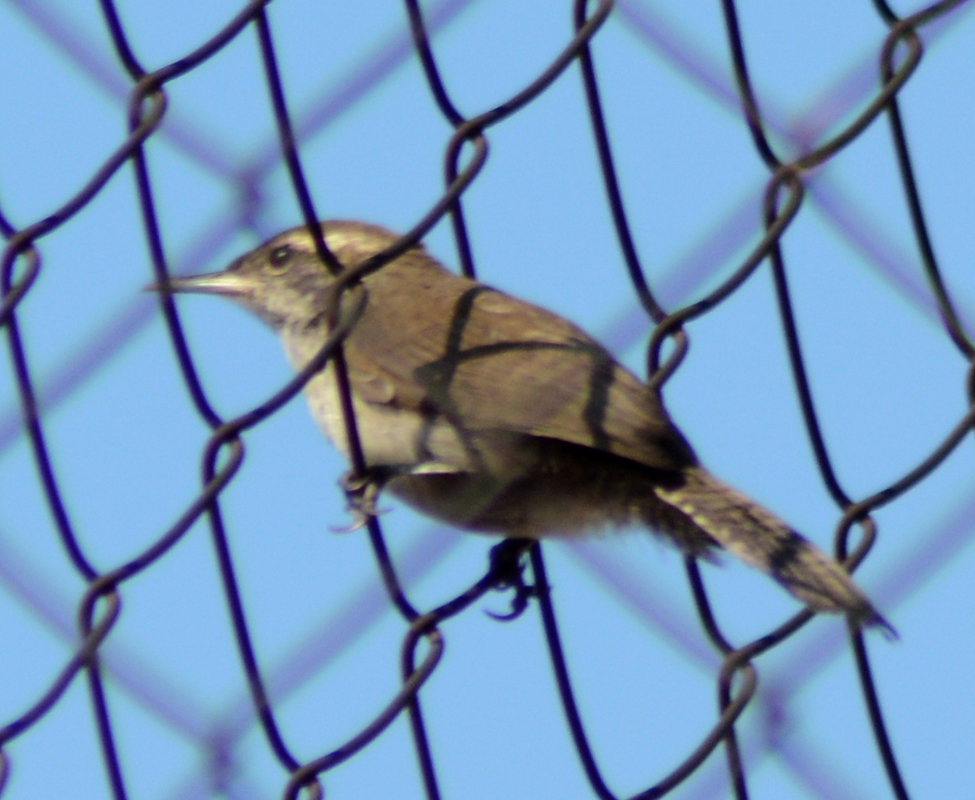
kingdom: Animalia
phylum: Chordata
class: Aves
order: Passeriformes
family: Troglodytidae
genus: Thryomanes
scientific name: Thryomanes bewickii
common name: Bewick's wren
